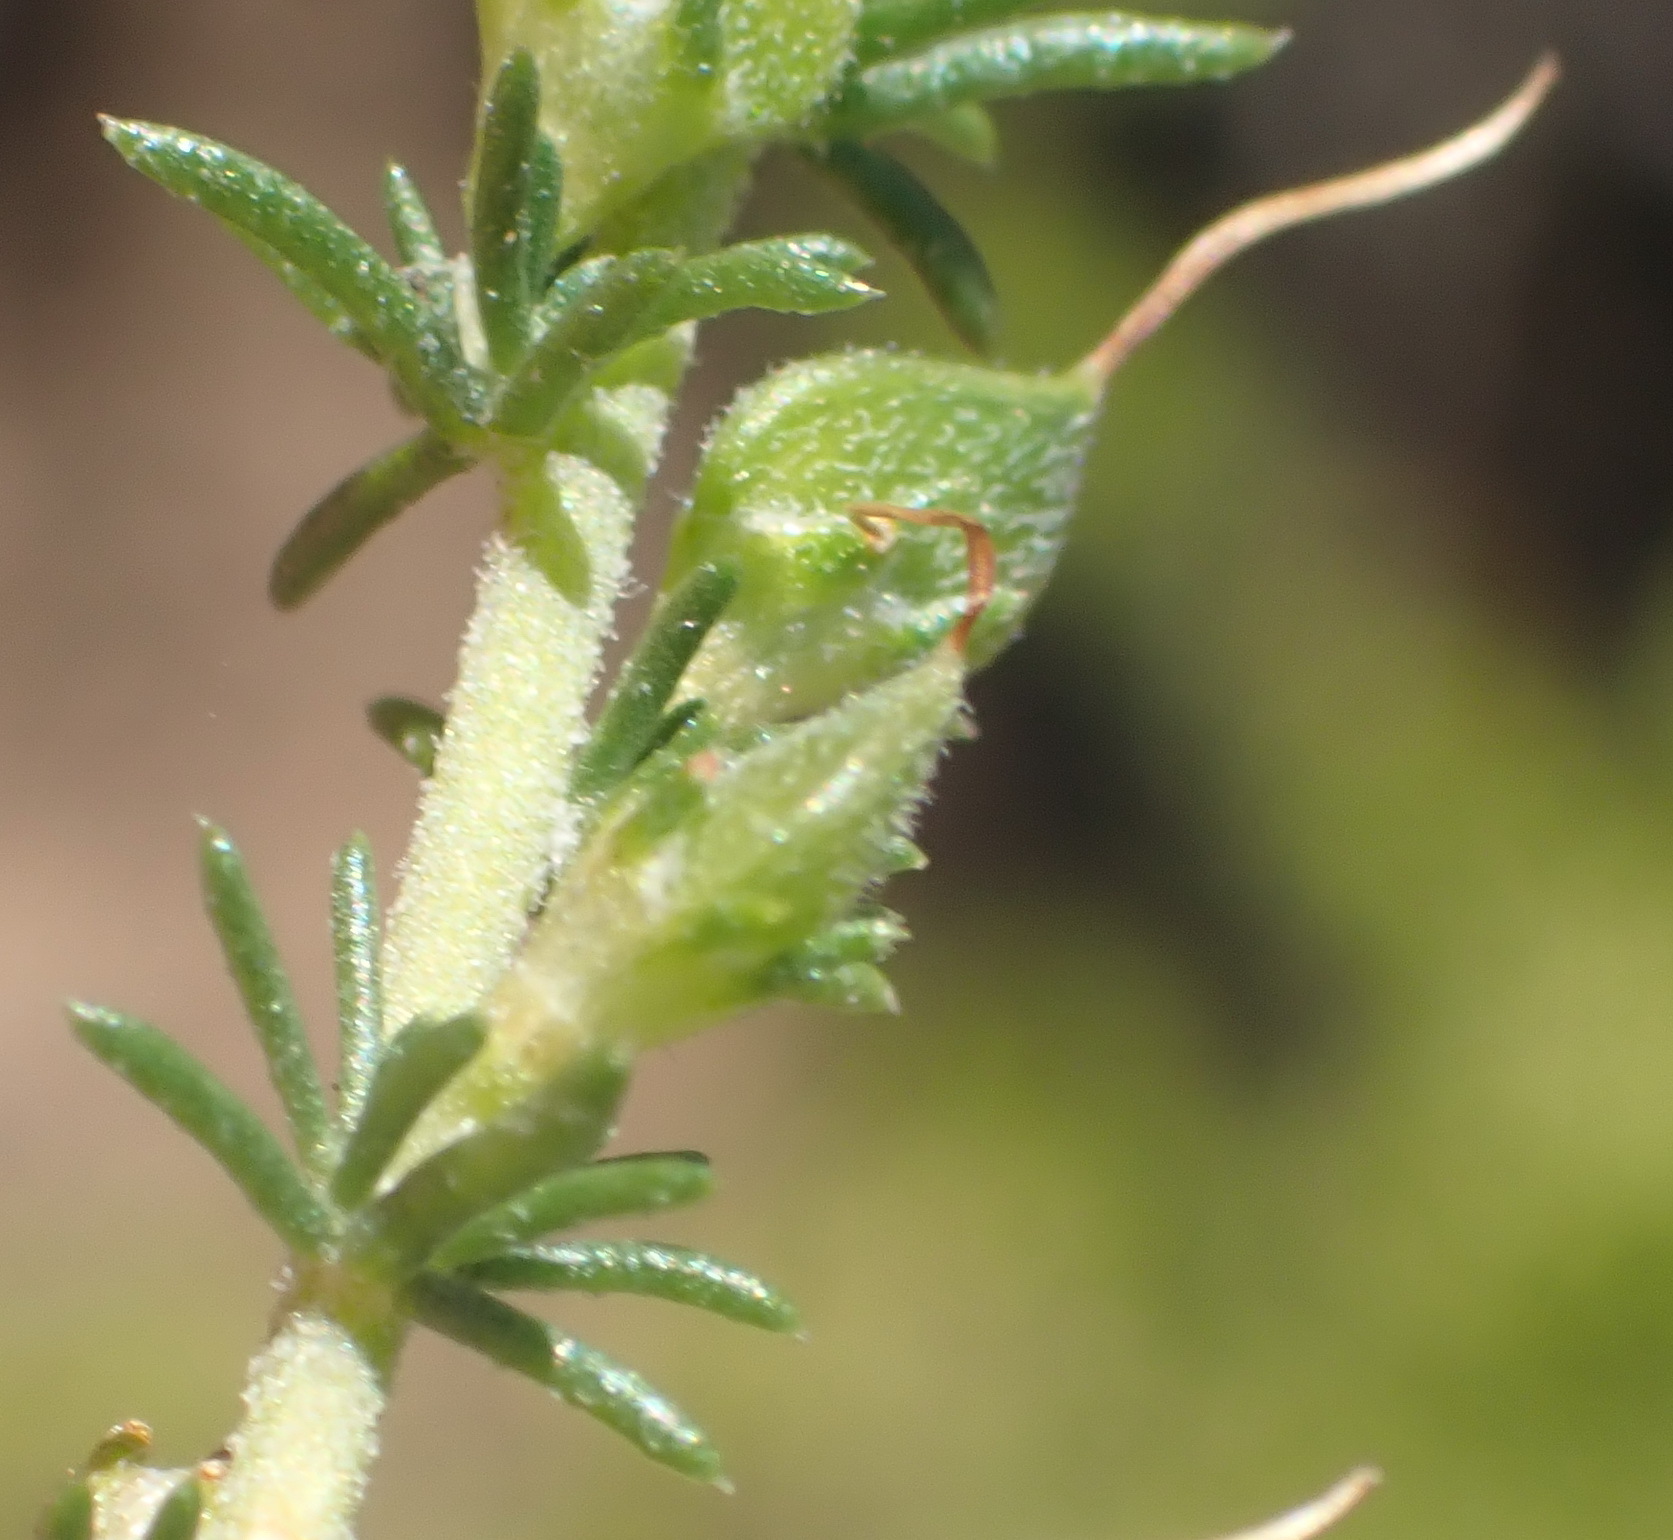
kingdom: Plantae
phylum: Tracheophyta
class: Magnoliopsida
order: Fabales
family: Fabaceae
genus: Aspalathus
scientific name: Aspalathus hispida
